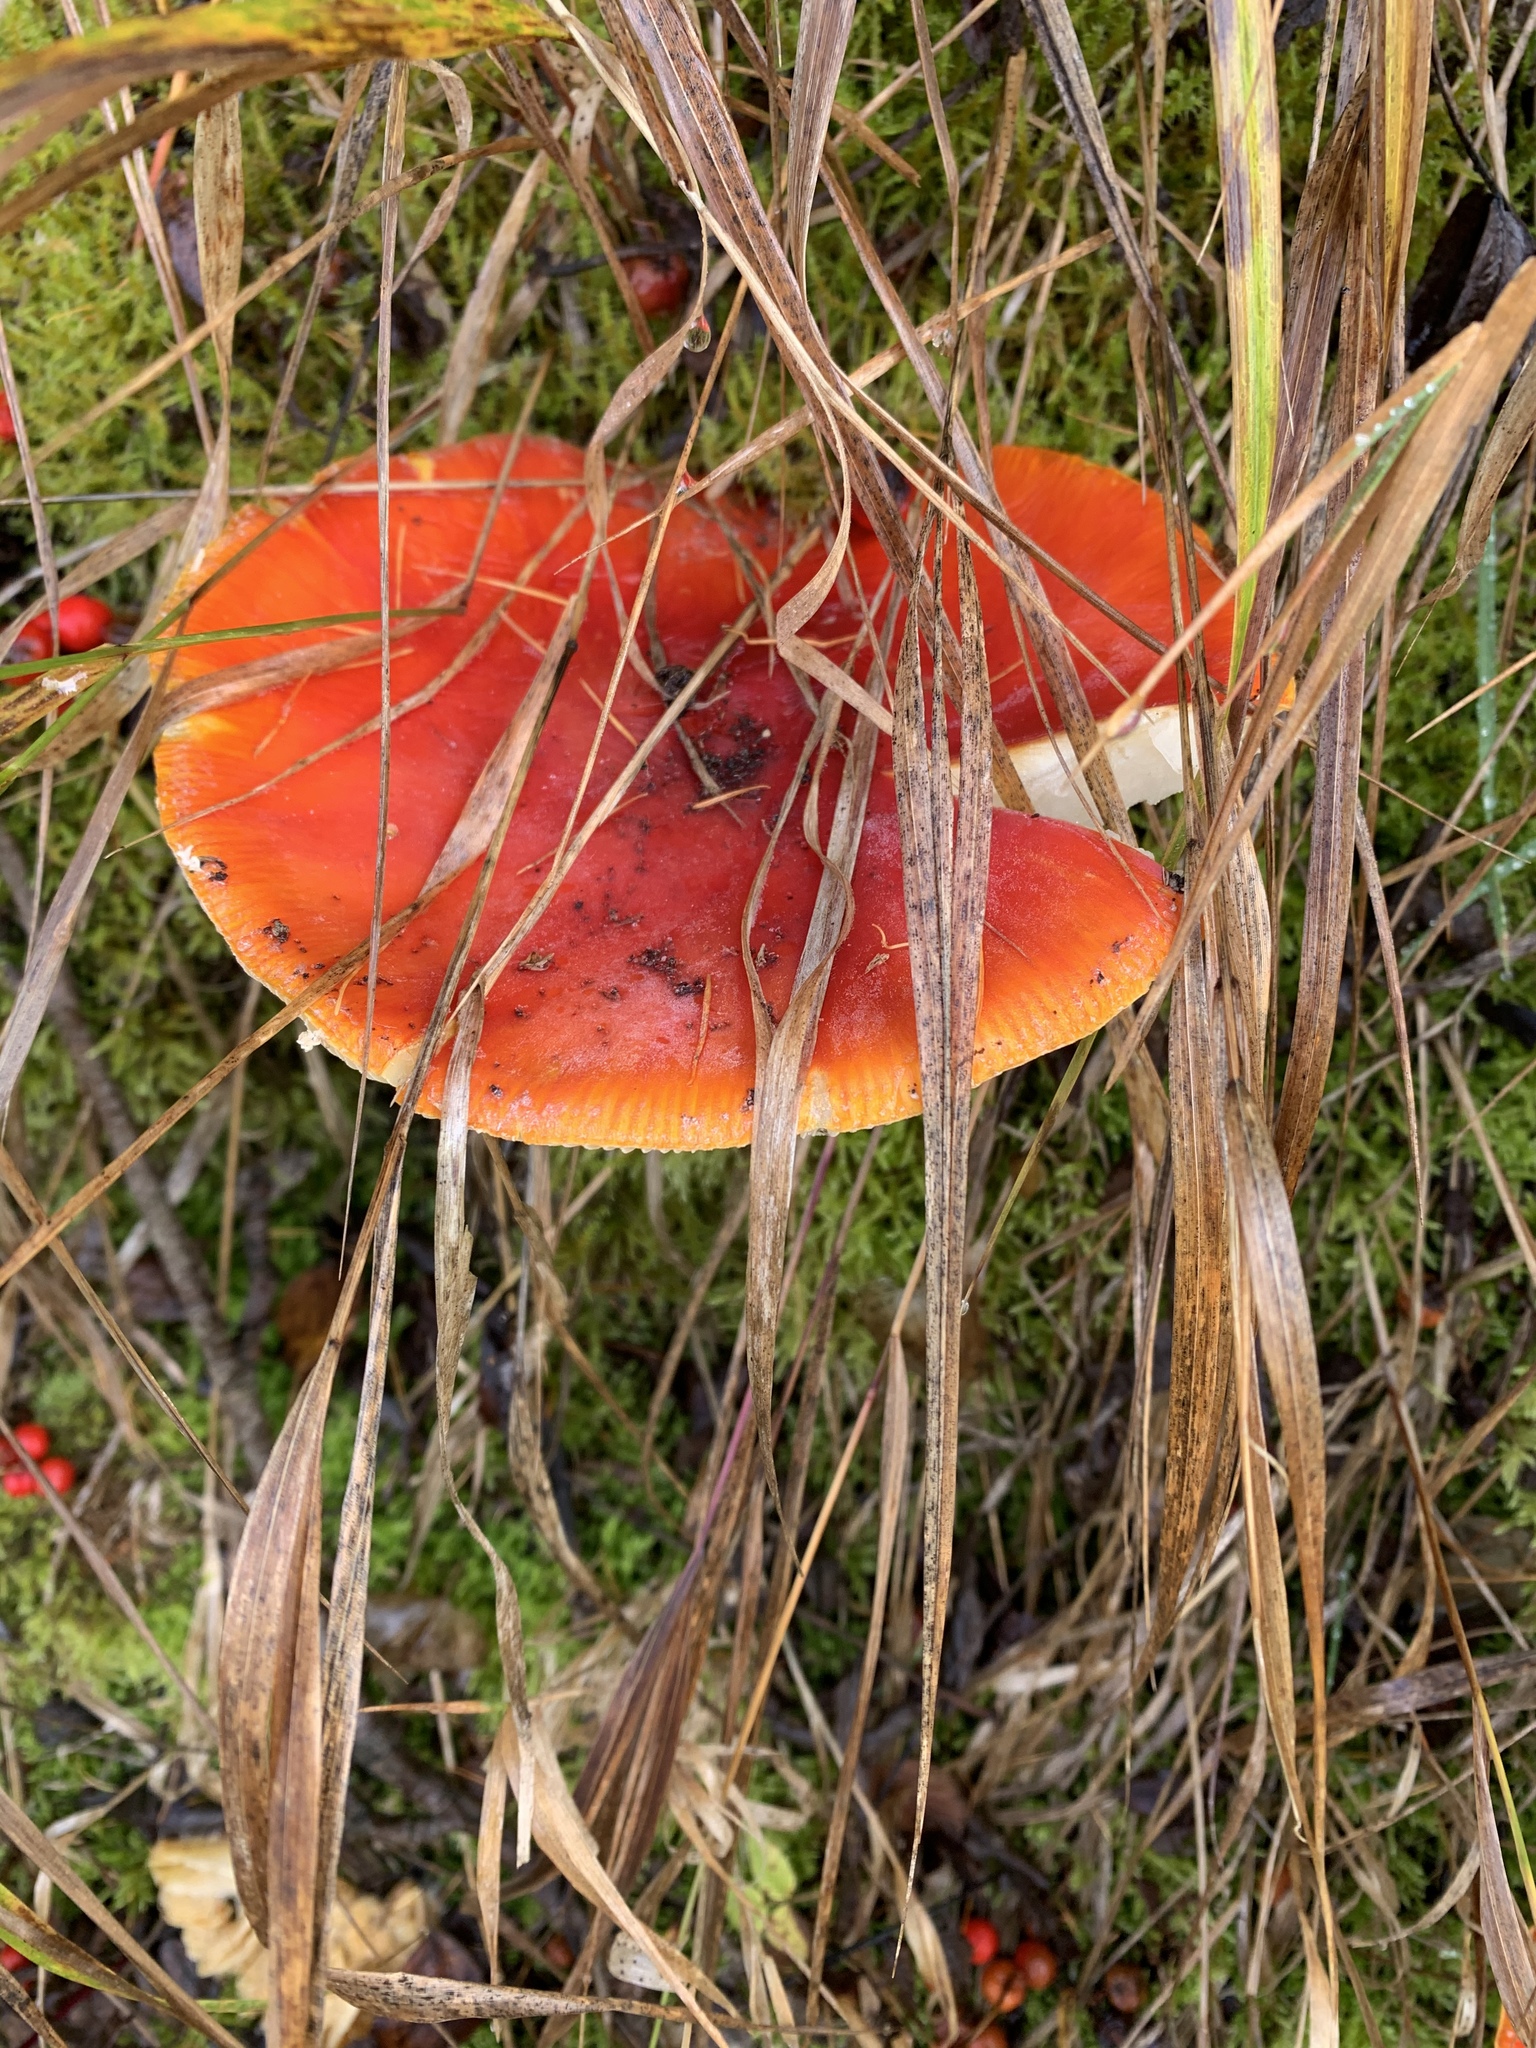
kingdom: Fungi
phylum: Basidiomycota
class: Agaricomycetes
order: Agaricales
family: Amanitaceae
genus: Amanita
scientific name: Amanita muscaria
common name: Fly agaric
